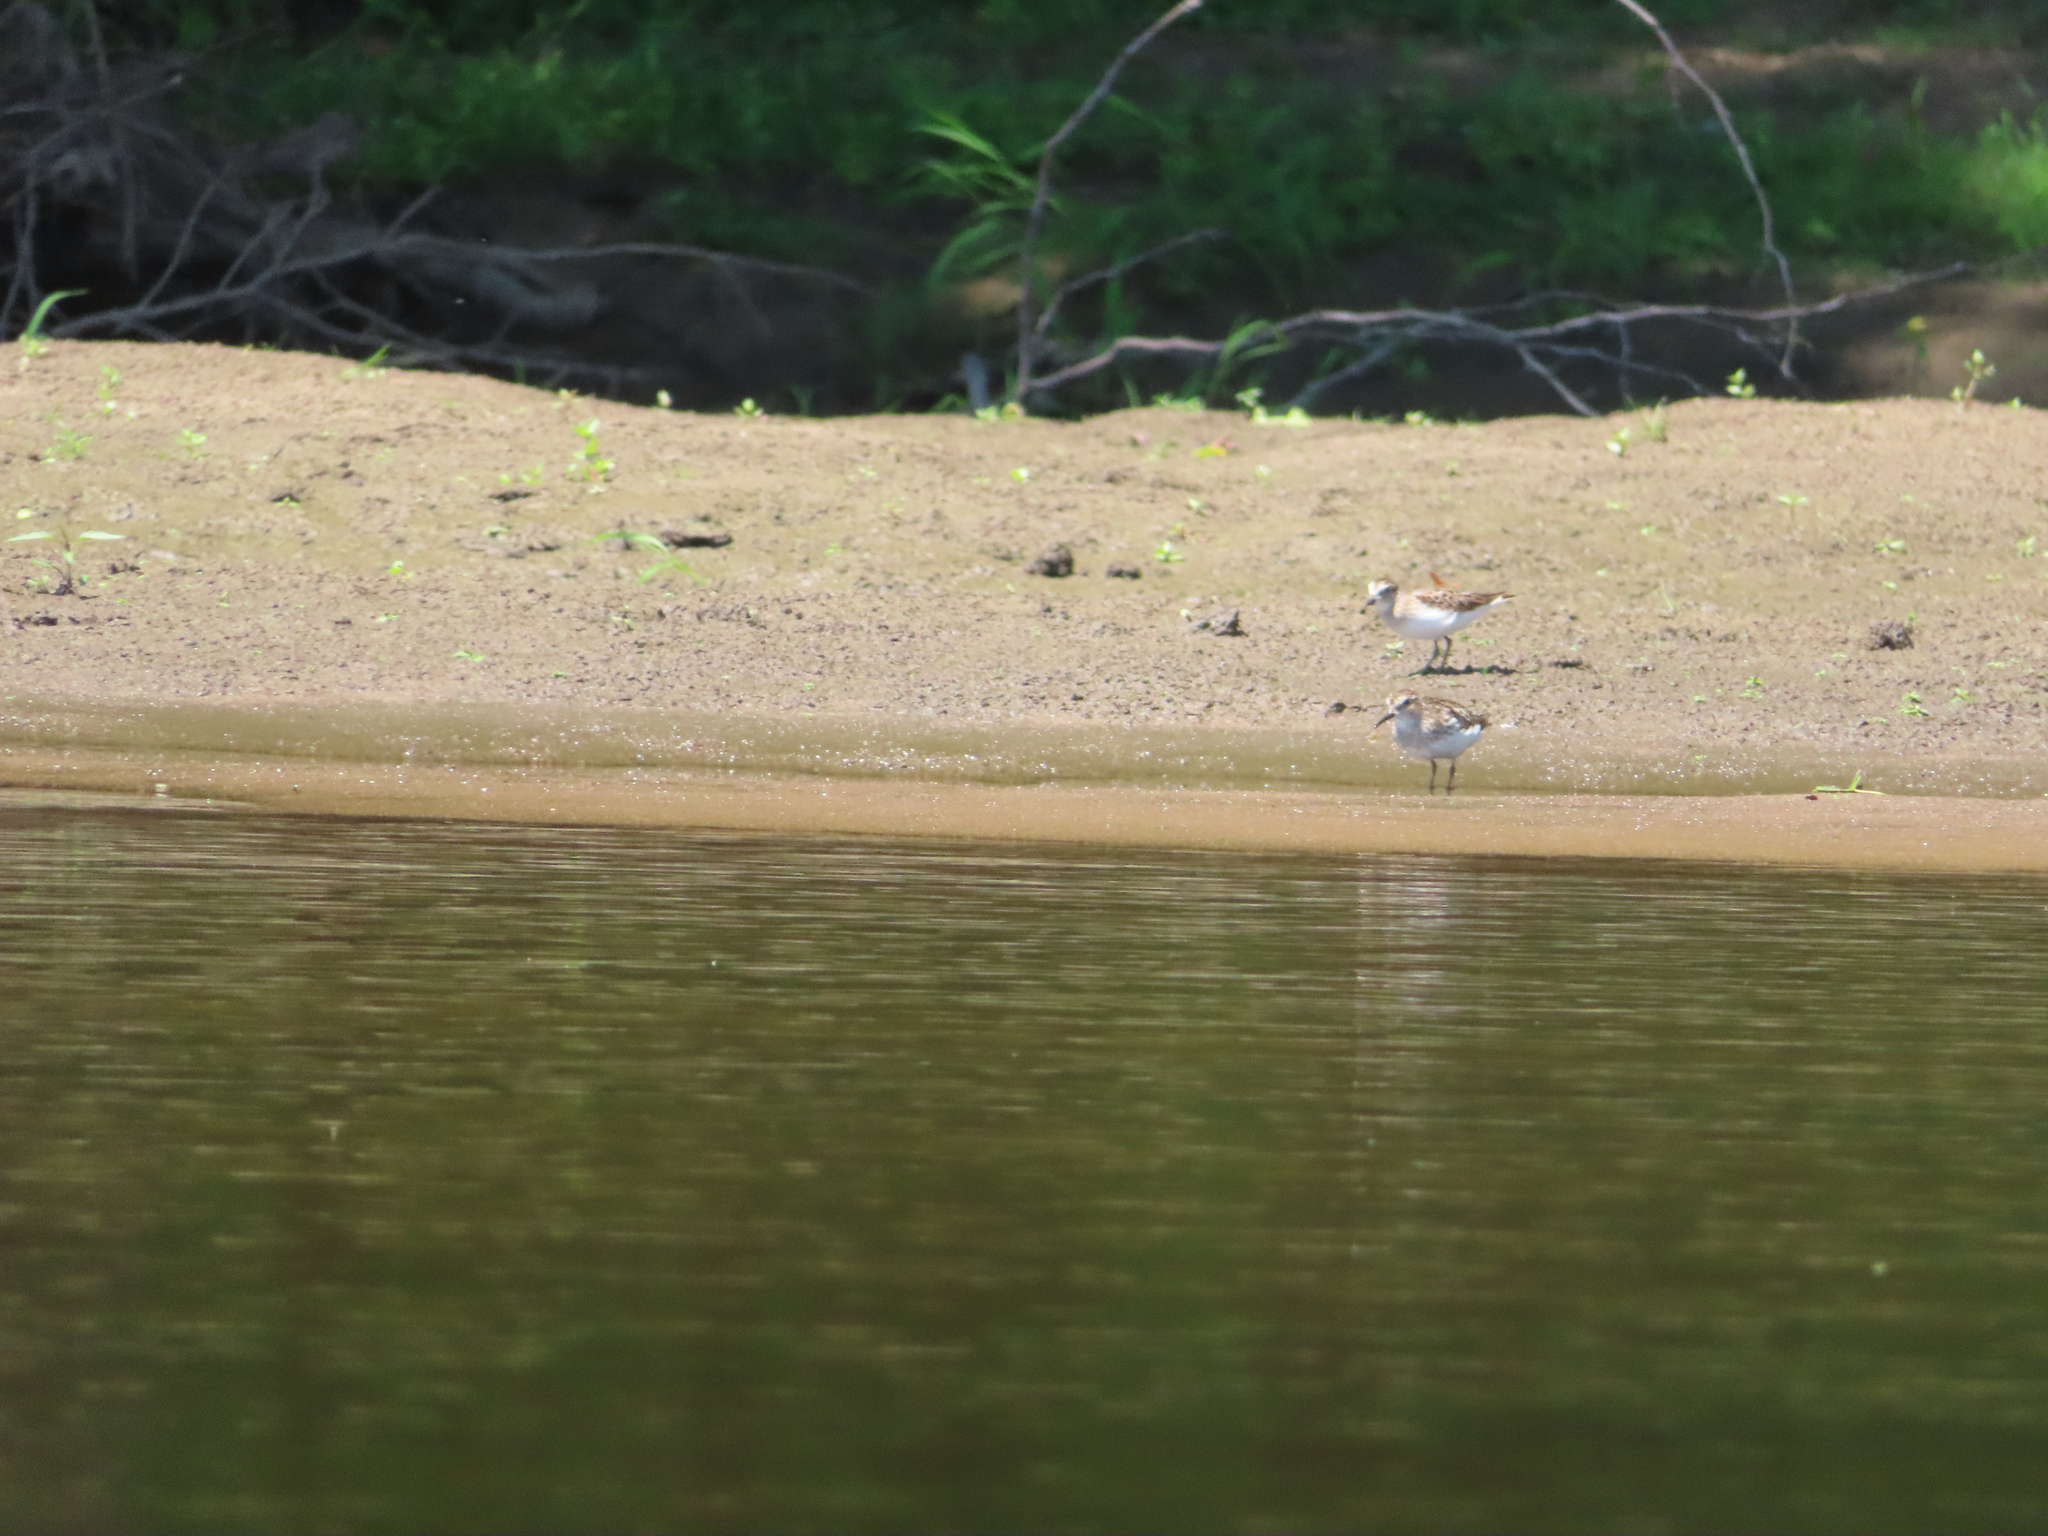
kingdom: Animalia
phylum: Chordata
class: Aves
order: Charadriiformes
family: Scolopacidae
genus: Calidris
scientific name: Calidris minutilla
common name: Least sandpiper
